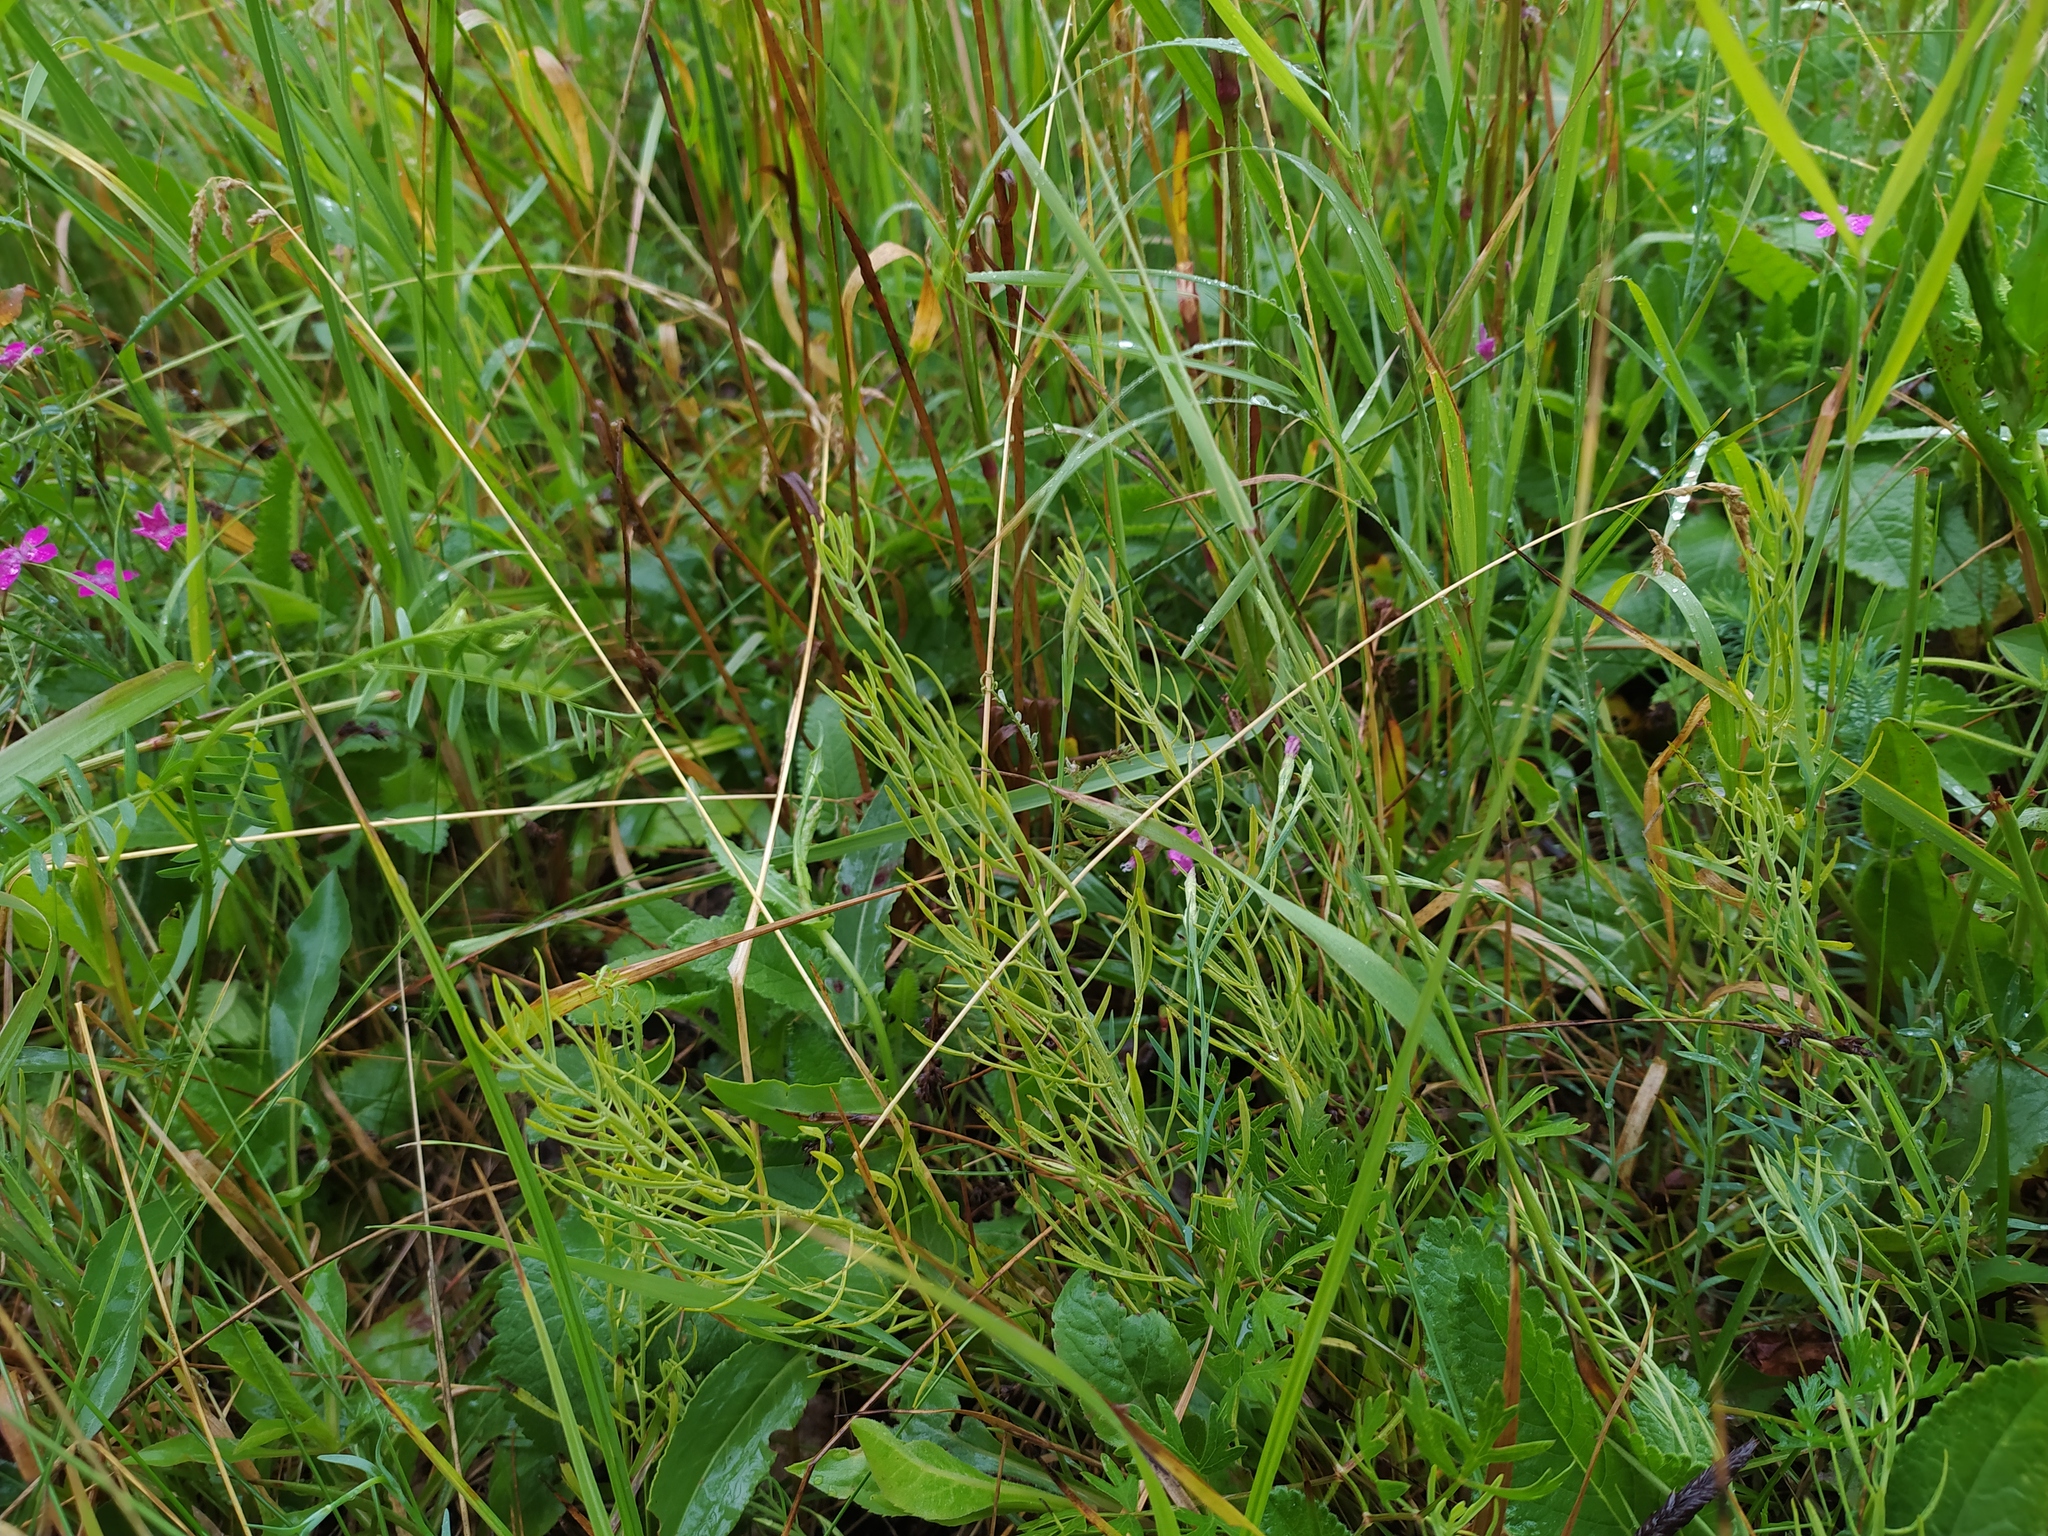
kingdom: Plantae
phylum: Tracheophyta
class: Magnoliopsida
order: Santalales
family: Thesiaceae
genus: Thesium
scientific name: Thesium ebracteatum
